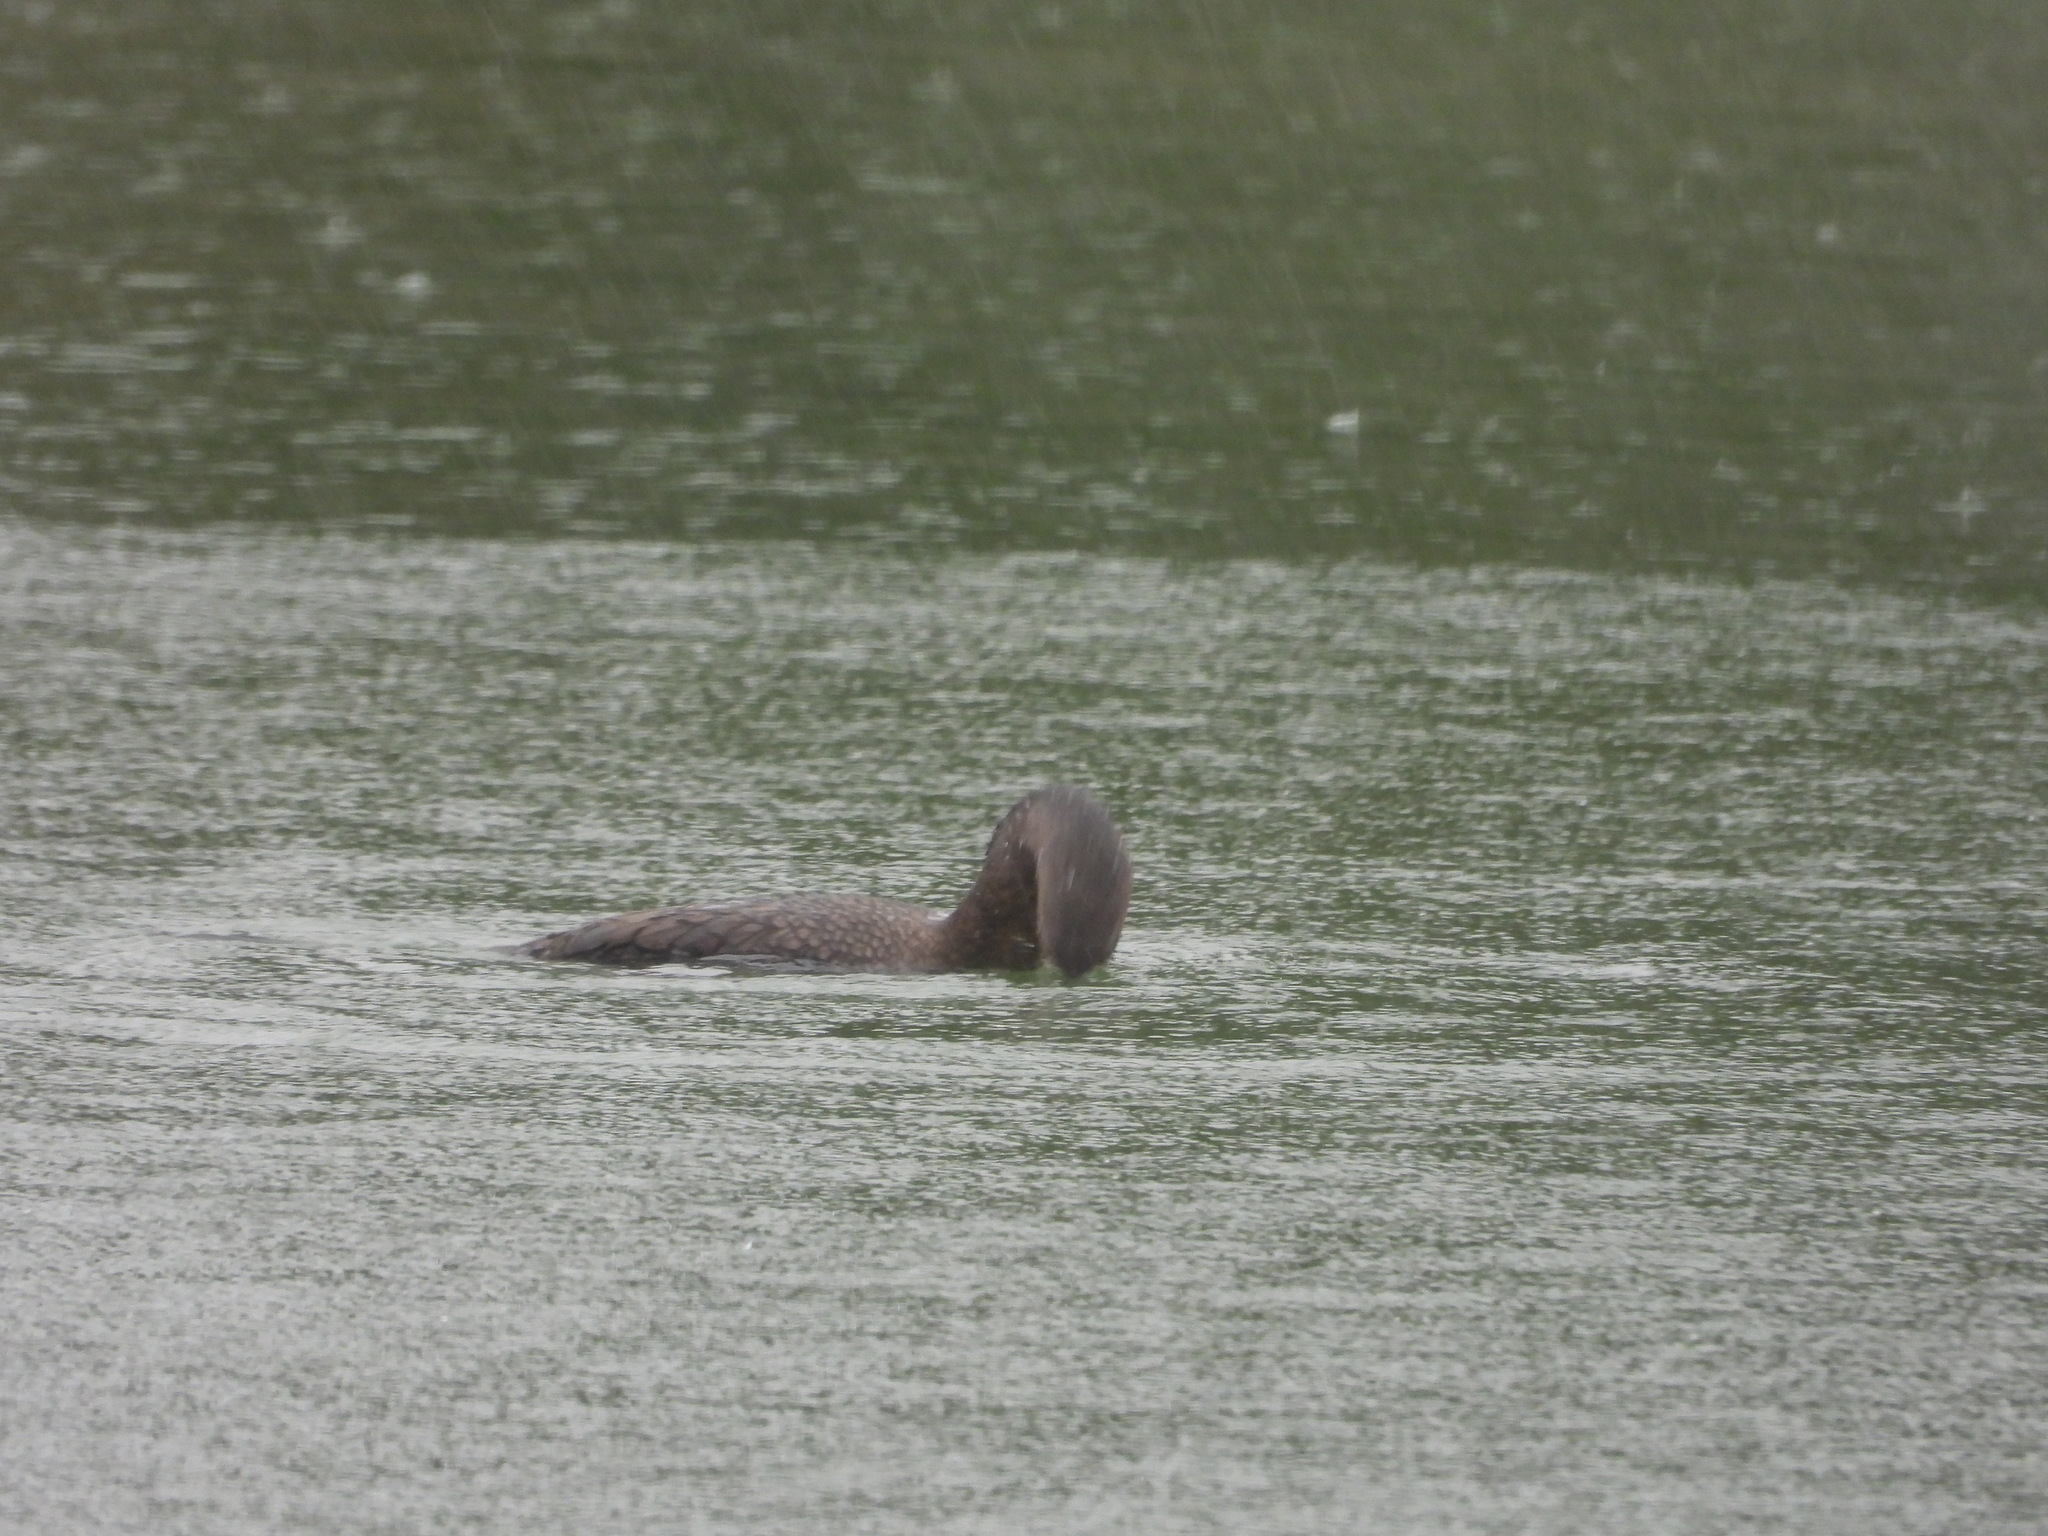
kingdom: Animalia
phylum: Chordata
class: Aves
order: Suliformes
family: Phalacrocoracidae
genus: Phalacrocorax
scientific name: Phalacrocorax auritus
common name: Double-crested cormorant
